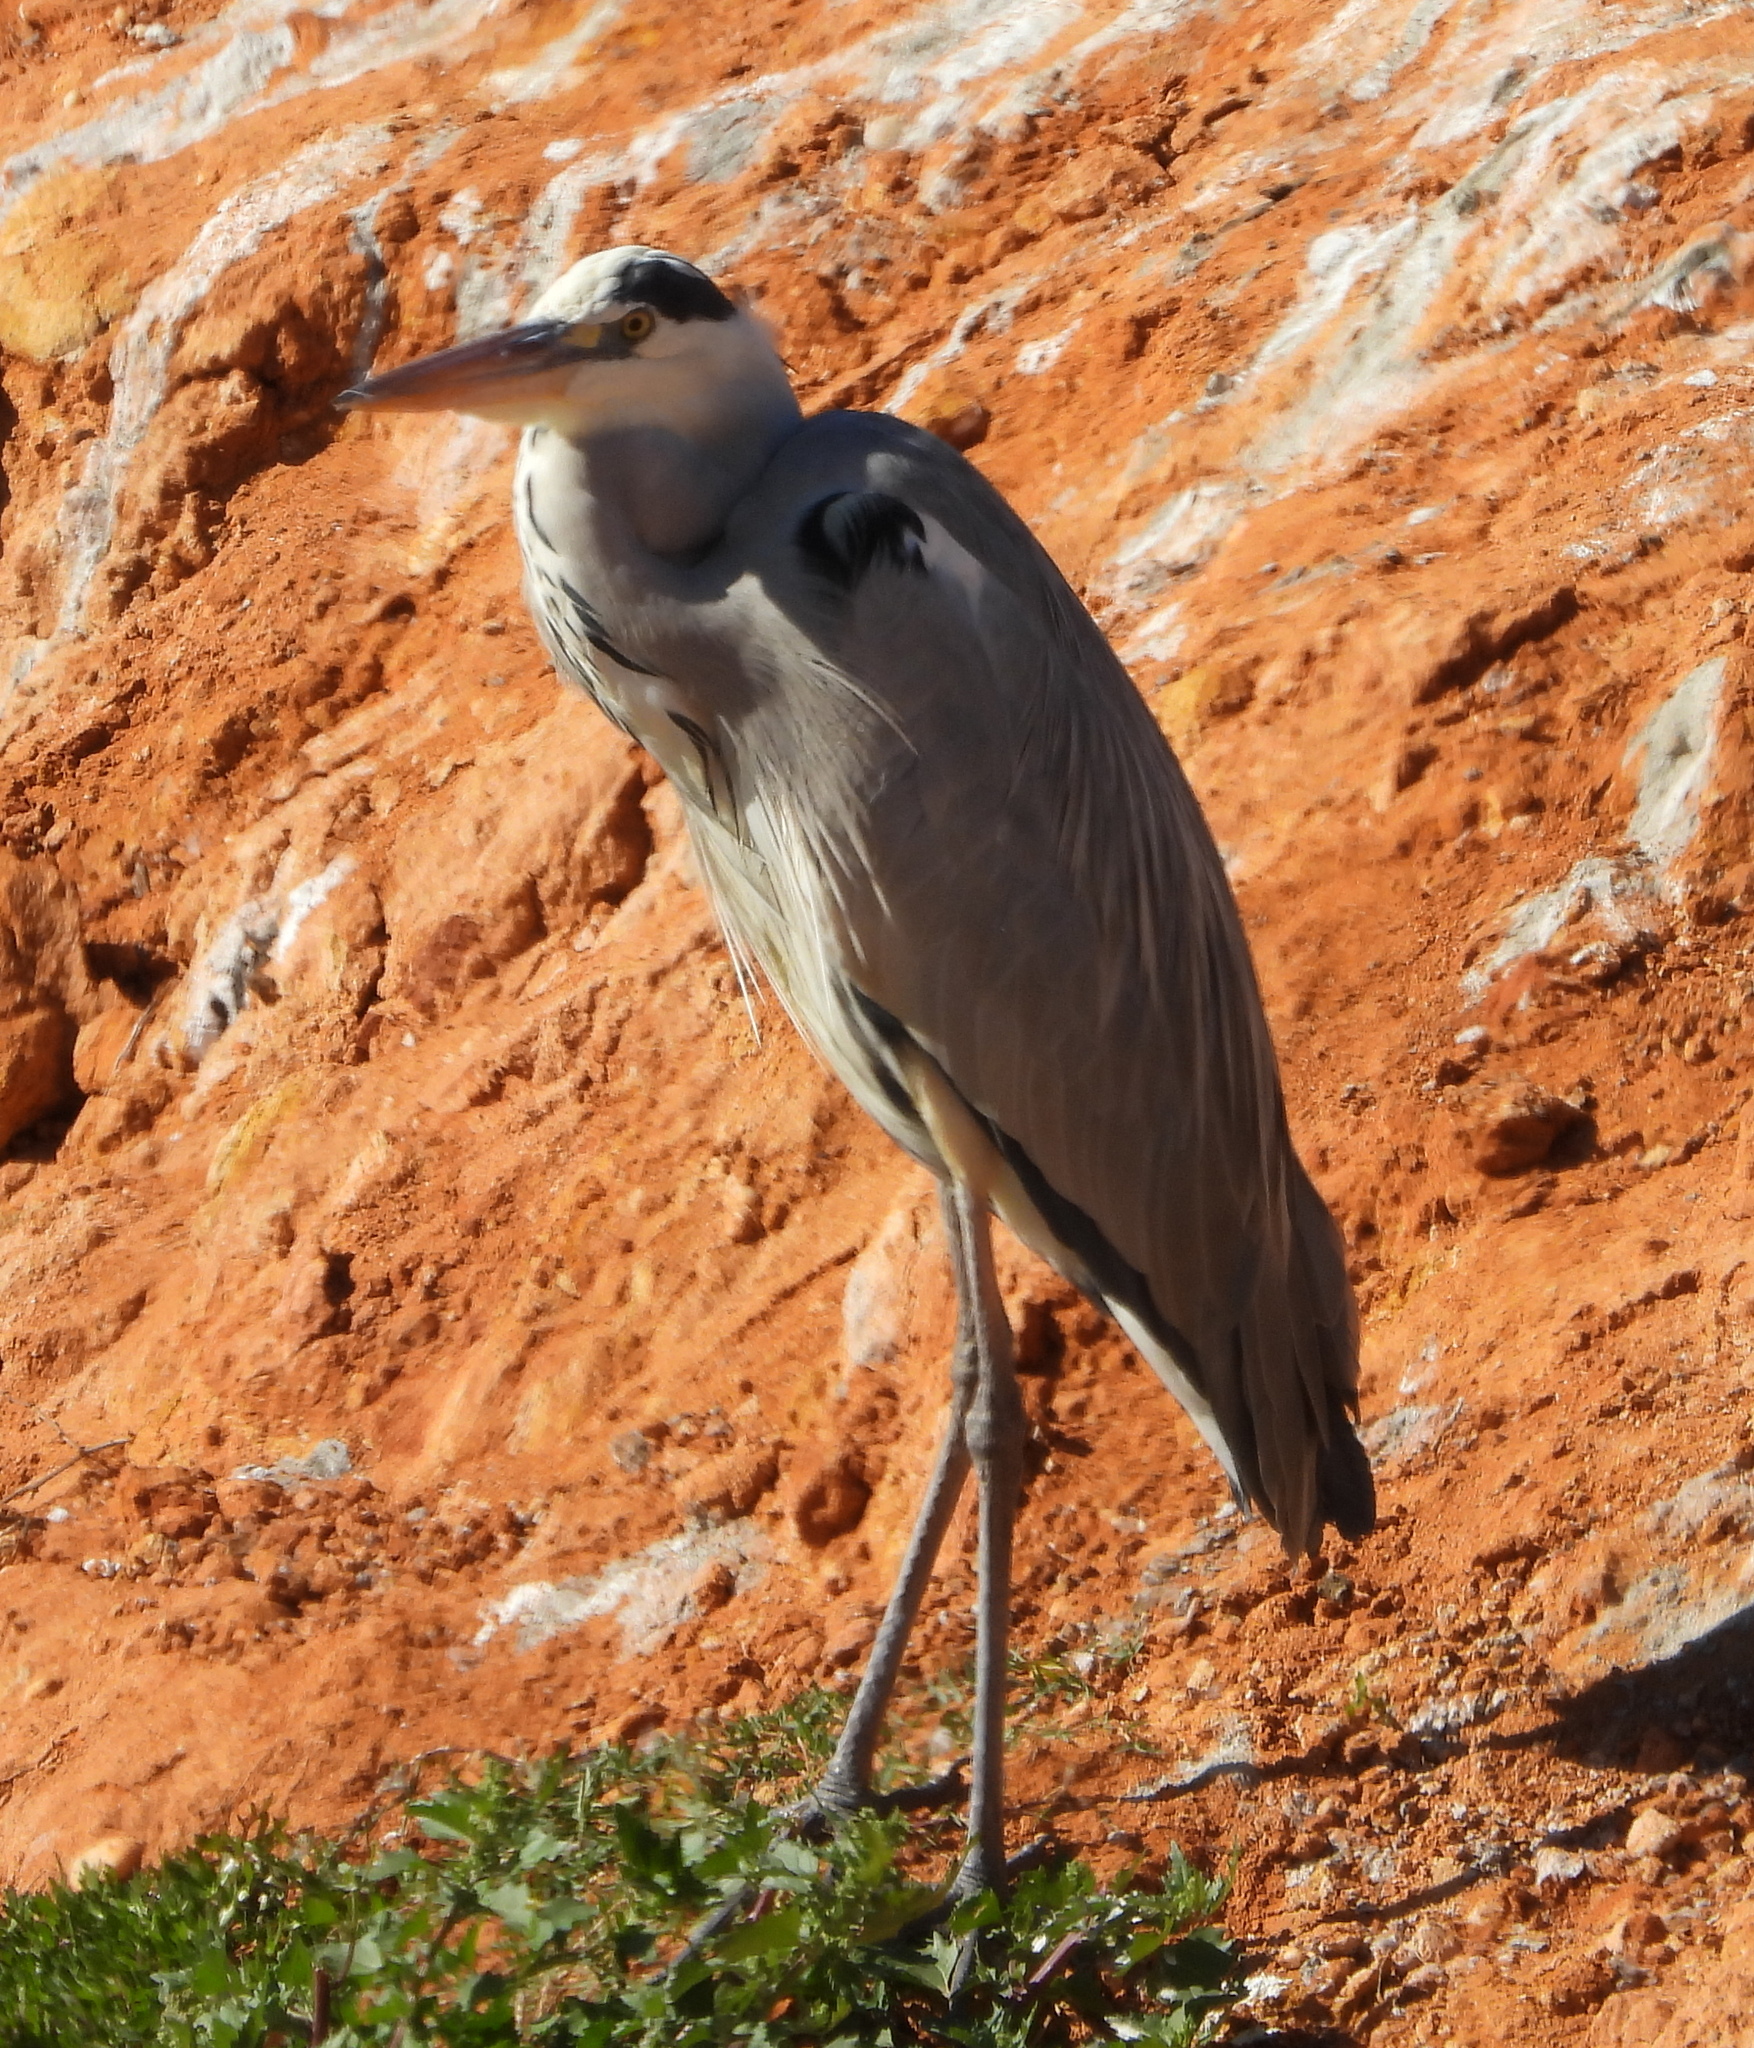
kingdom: Animalia
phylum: Chordata
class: Aves
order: Pelecaniformes
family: Ardeidae
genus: Ardea
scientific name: Ardea cinerea
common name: Grey heron
